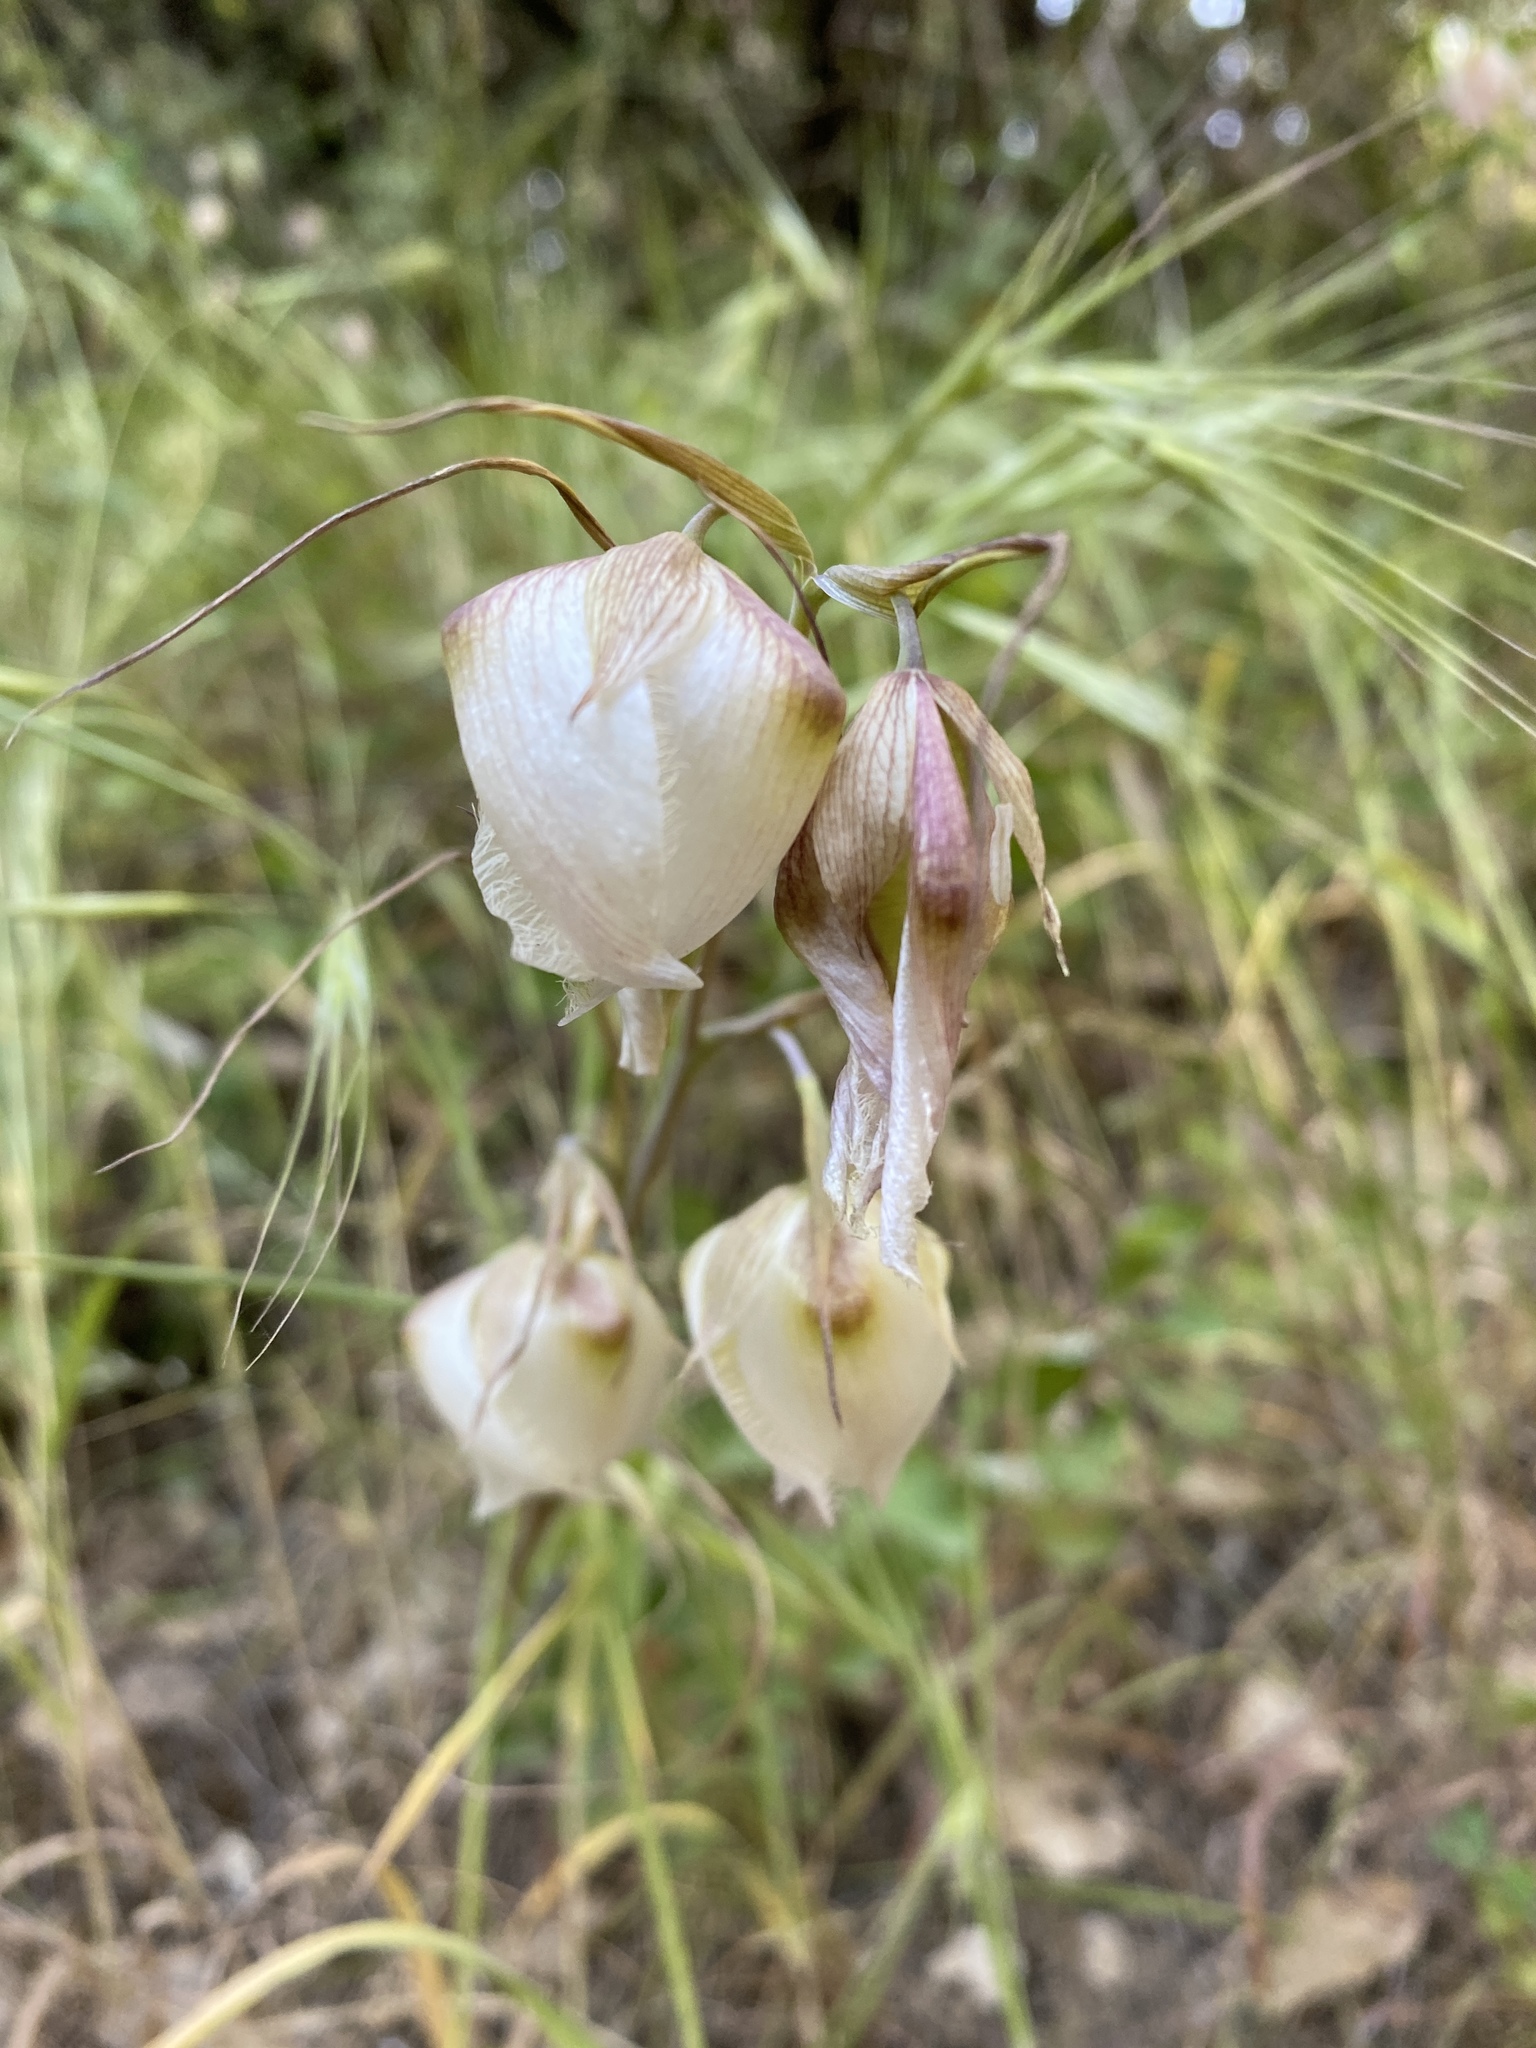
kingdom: Plantae
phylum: Tracheophyta
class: Liliopsida
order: Liliales
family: Liliaceae
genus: Calochortus
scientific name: Calochortus albus
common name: Fairy-lantern
